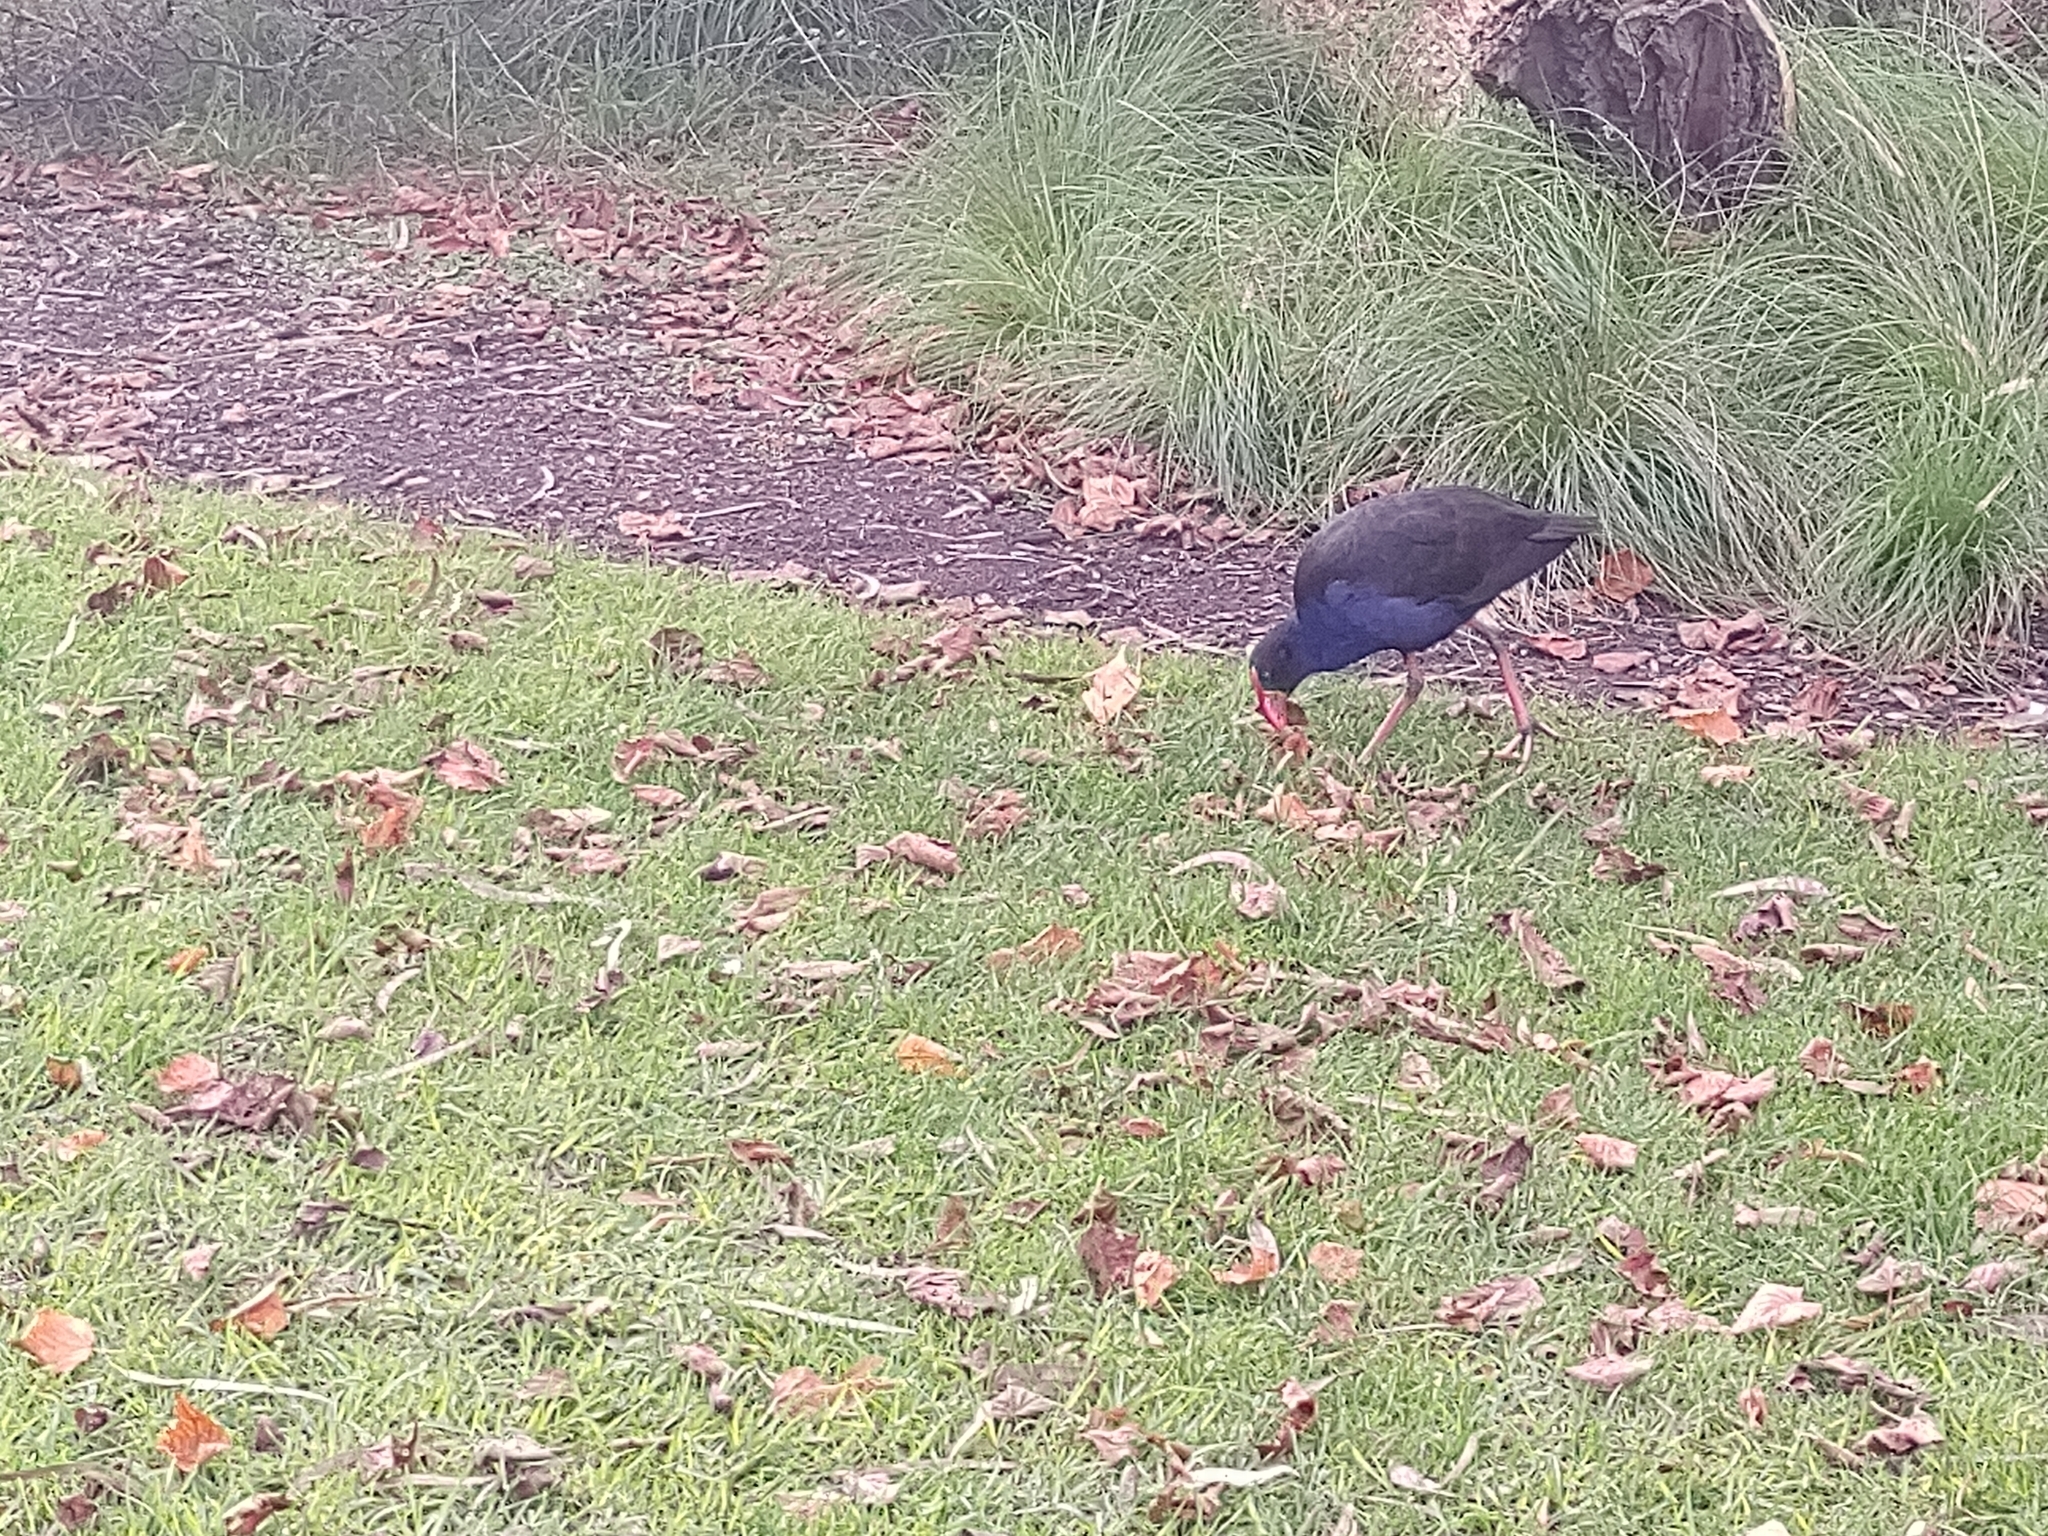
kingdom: Animalia
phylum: Chordata
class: Aves
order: Gruiformes
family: Rallidae
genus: Porphyrio
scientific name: Porphyrio melanotus
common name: Australasian swamphen
